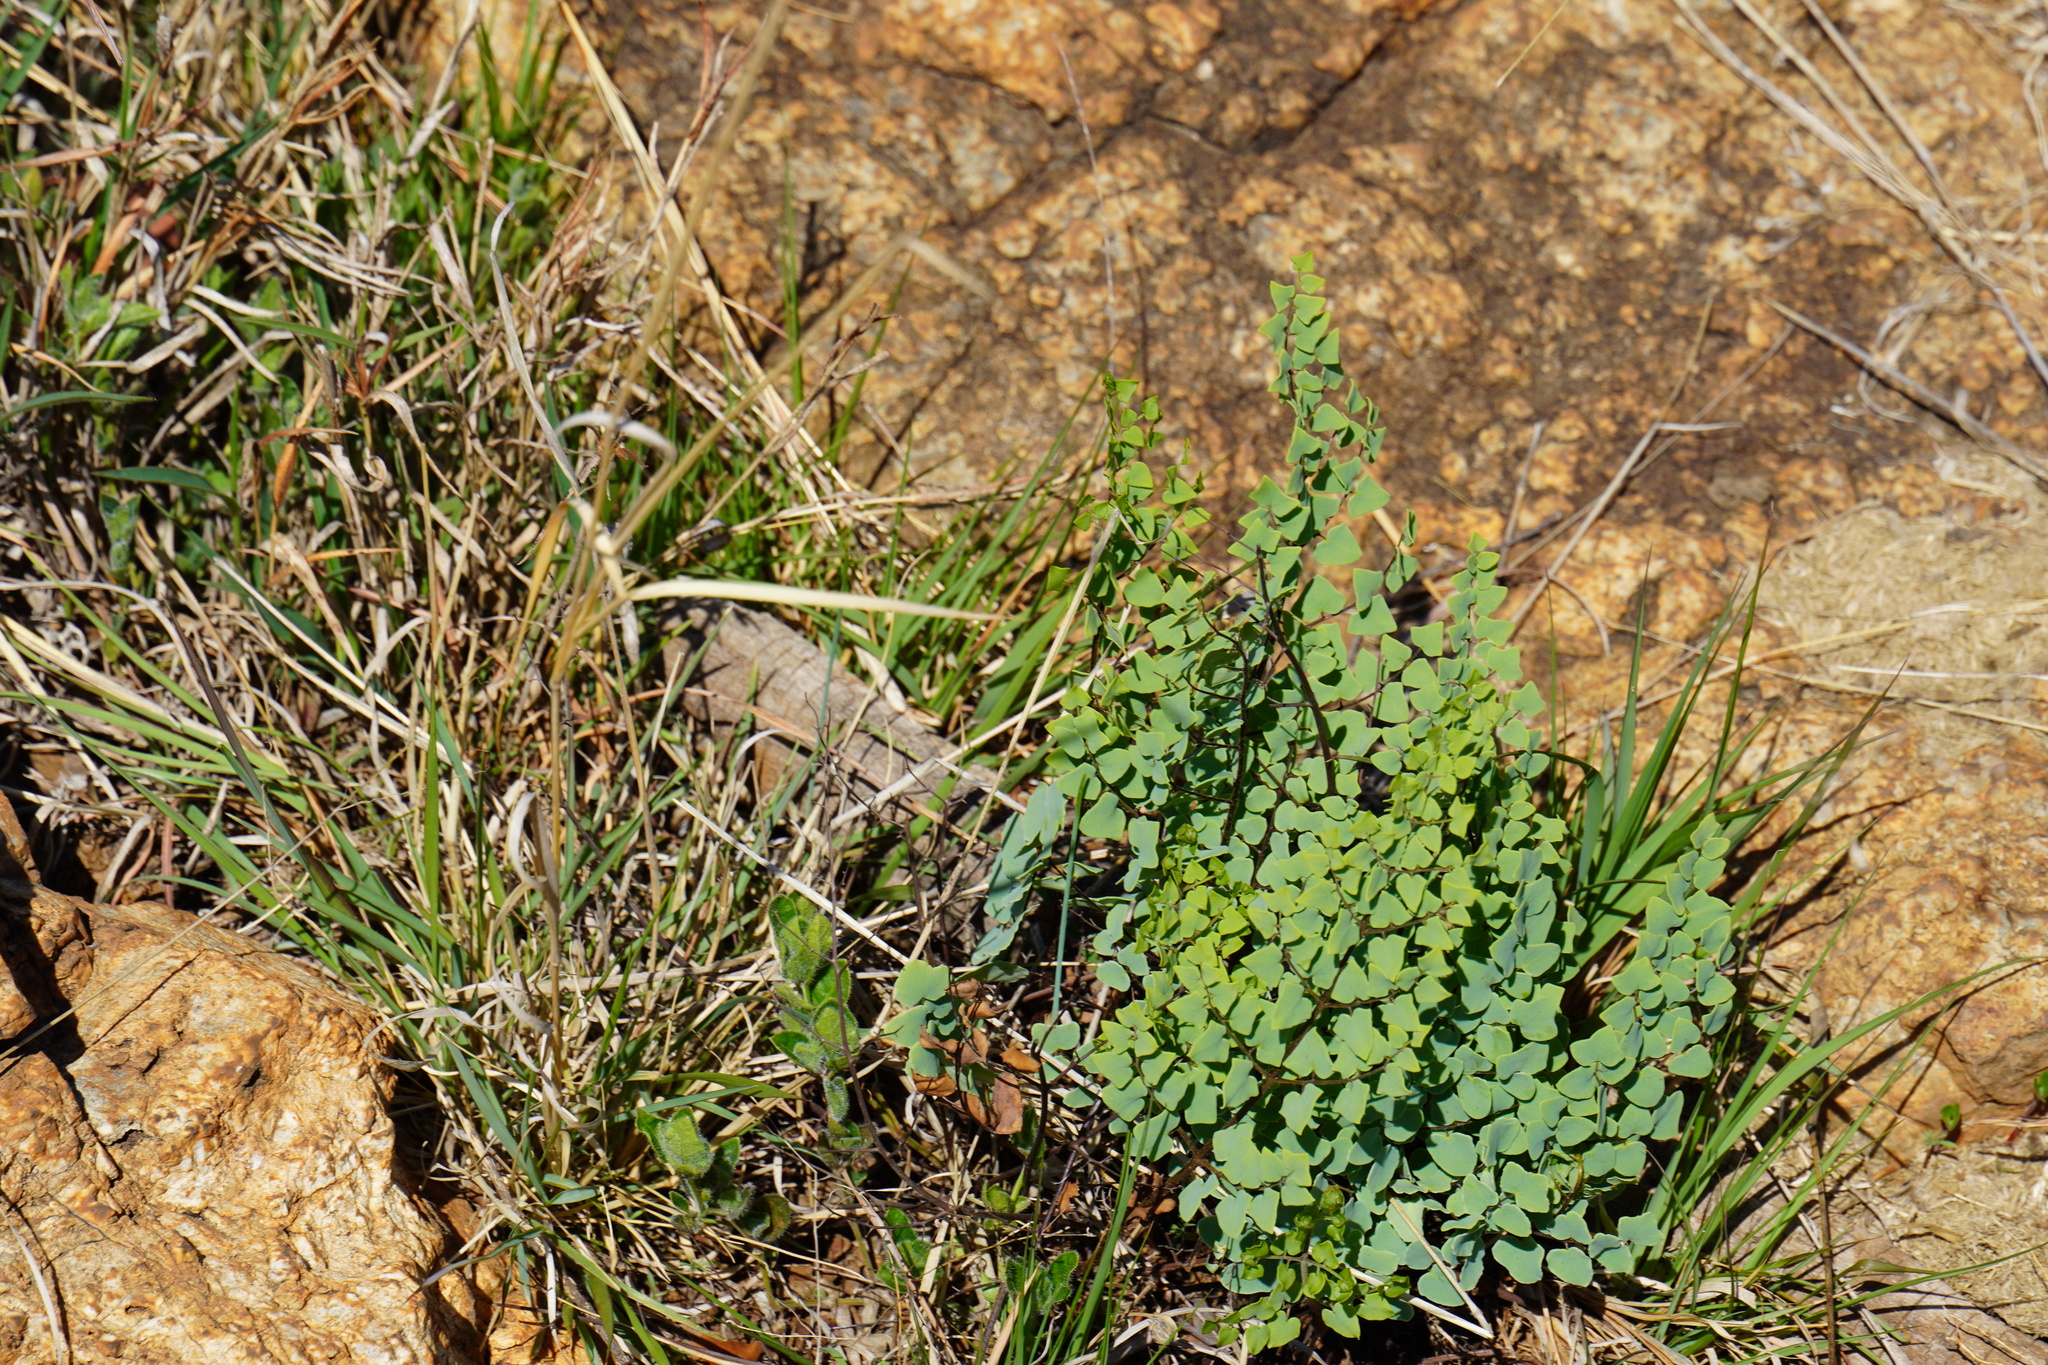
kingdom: Plantae
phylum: Tracheophyta
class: Polypodiopsida
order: Polypodiales
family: Pteridaceae
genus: Pellaea
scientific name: Pellaea calomelanos
